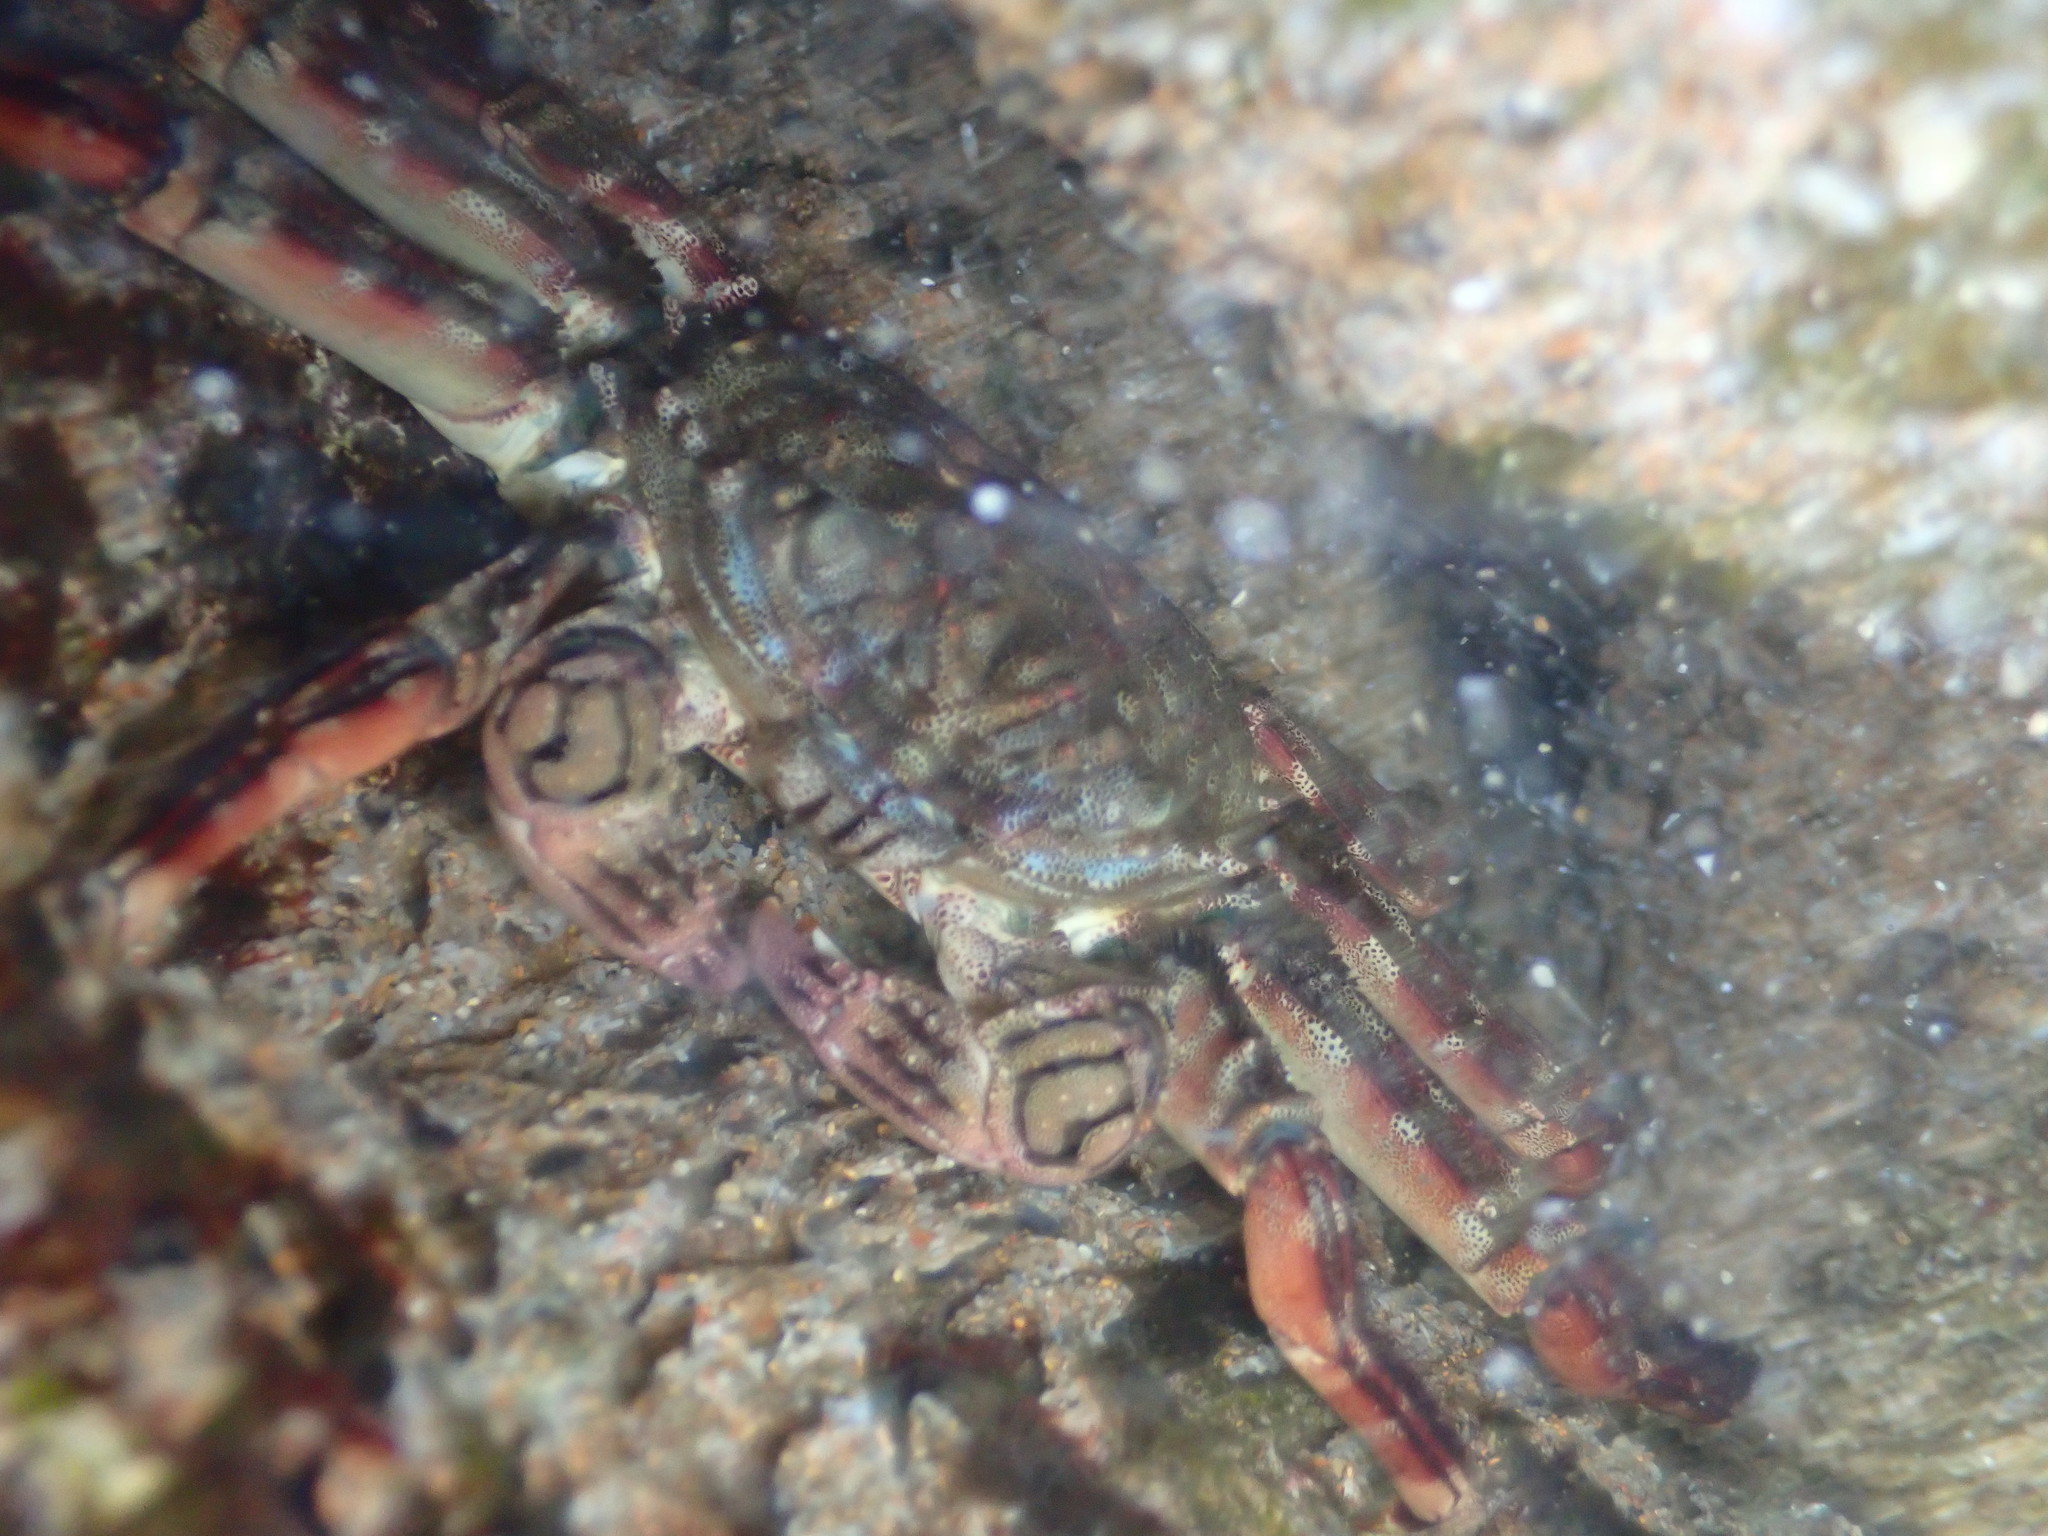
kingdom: Animalia
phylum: Arthropoda
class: Malacostraca
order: Decapoda
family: Plagusiidae
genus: Plagusia
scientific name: Plagusia depressa
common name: Flattened crab
